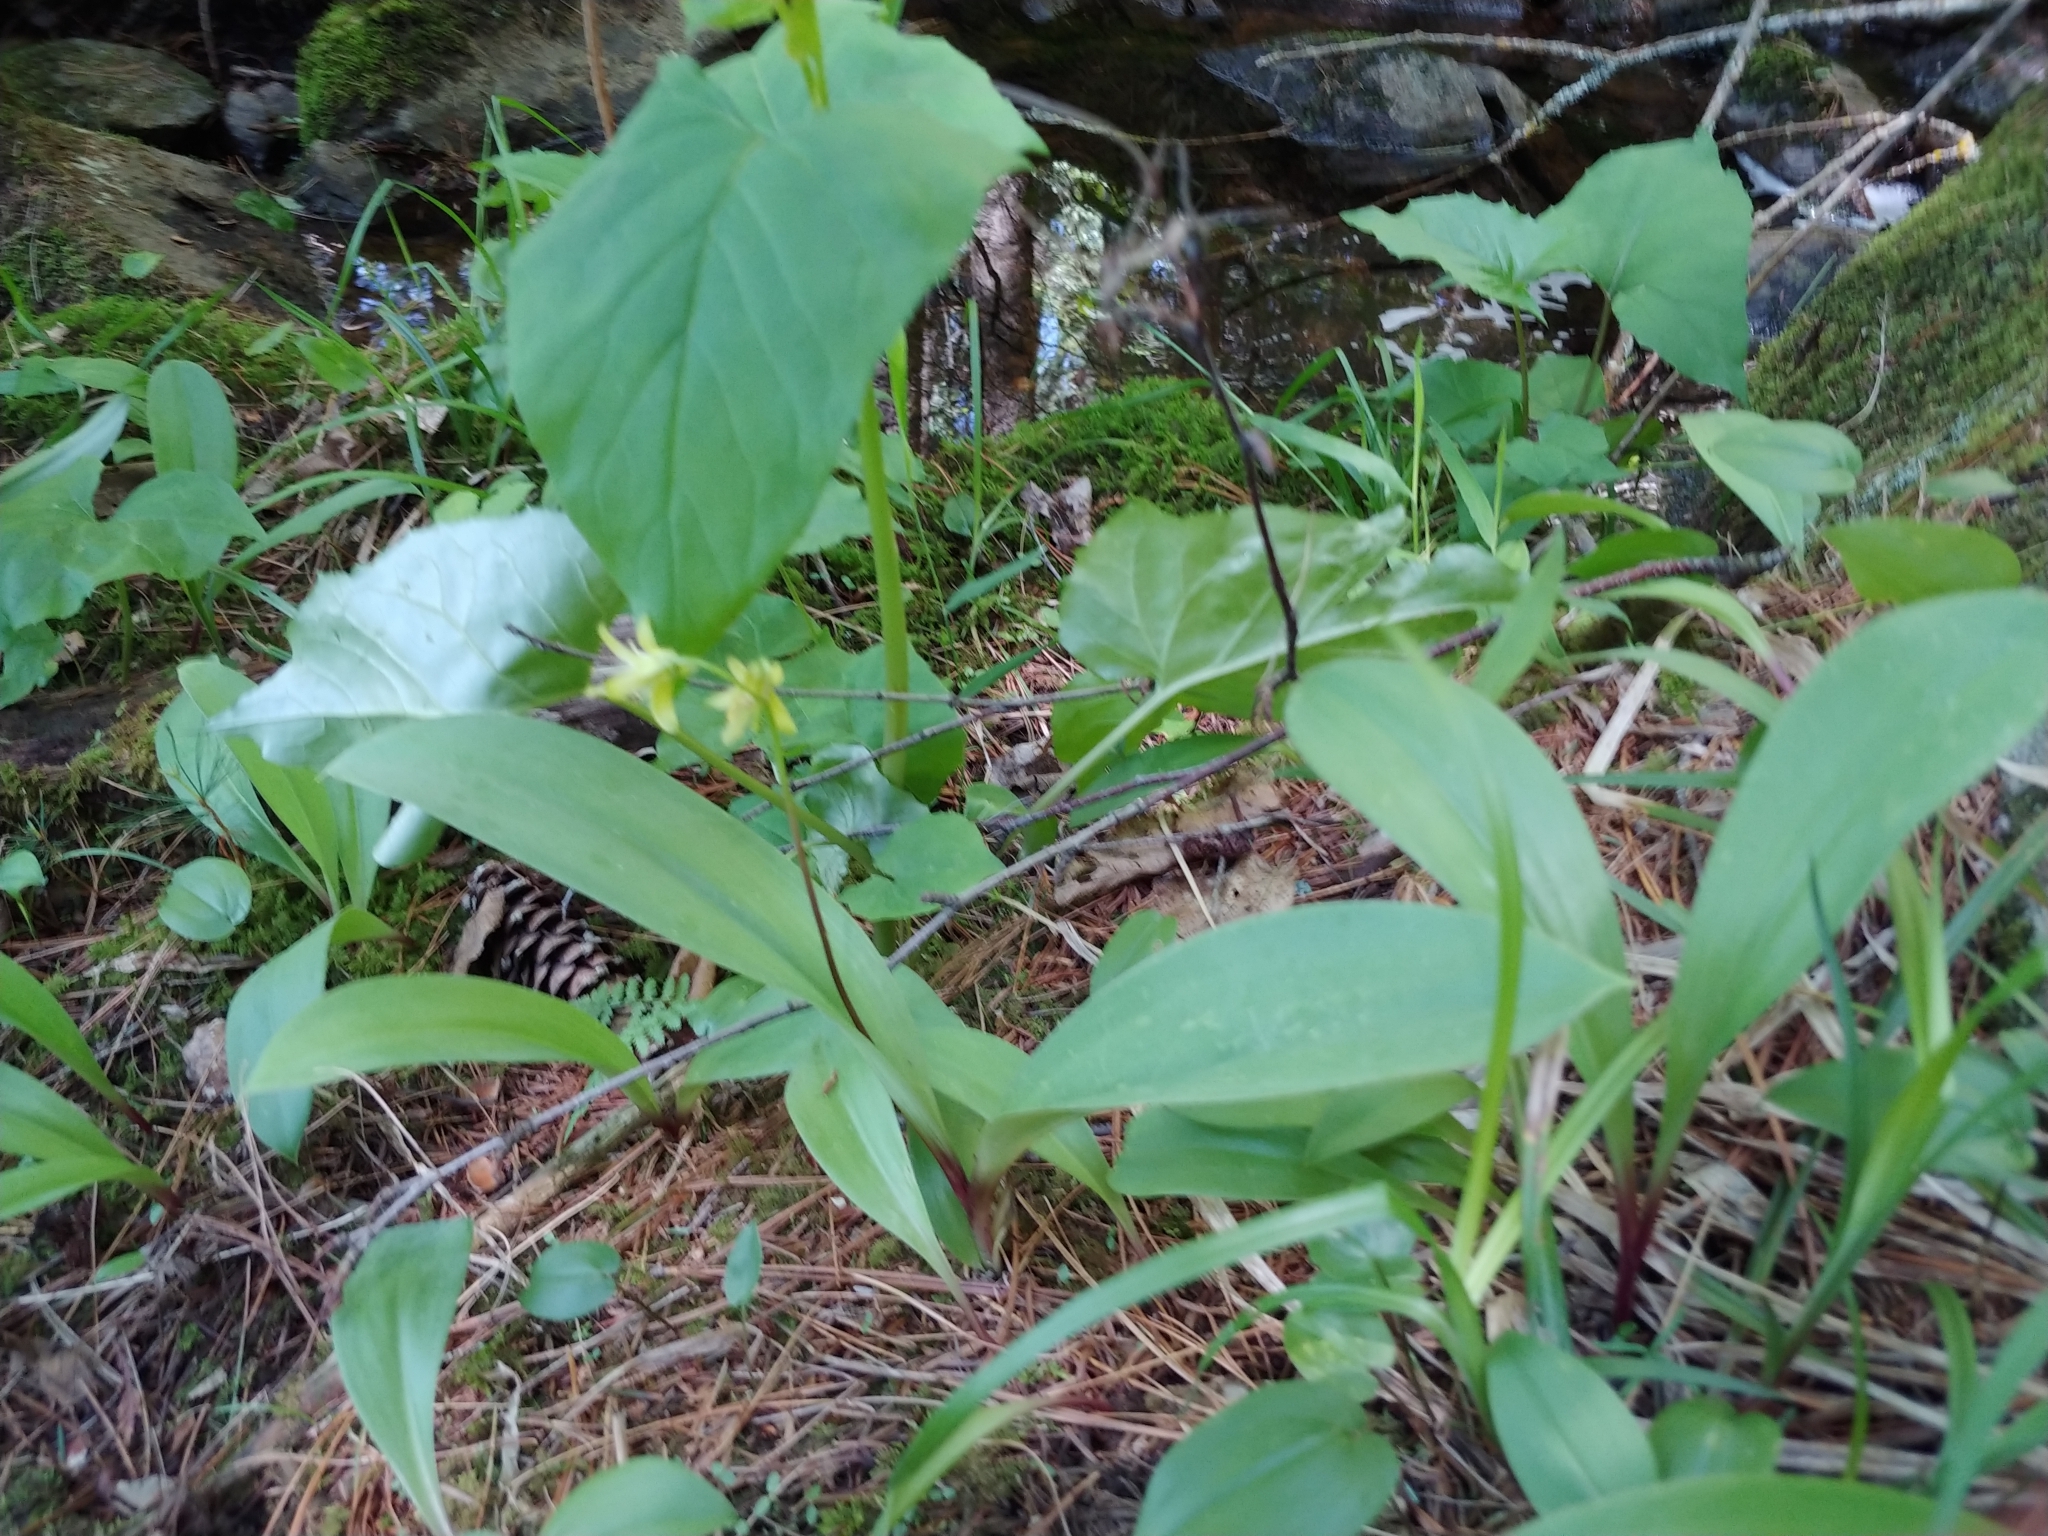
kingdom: Plantae
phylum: Tracheophyta
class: Liliopsida
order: Liliales
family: Liliaceae
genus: Clintonia
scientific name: Clintonia borealis
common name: Yellow clintonia
